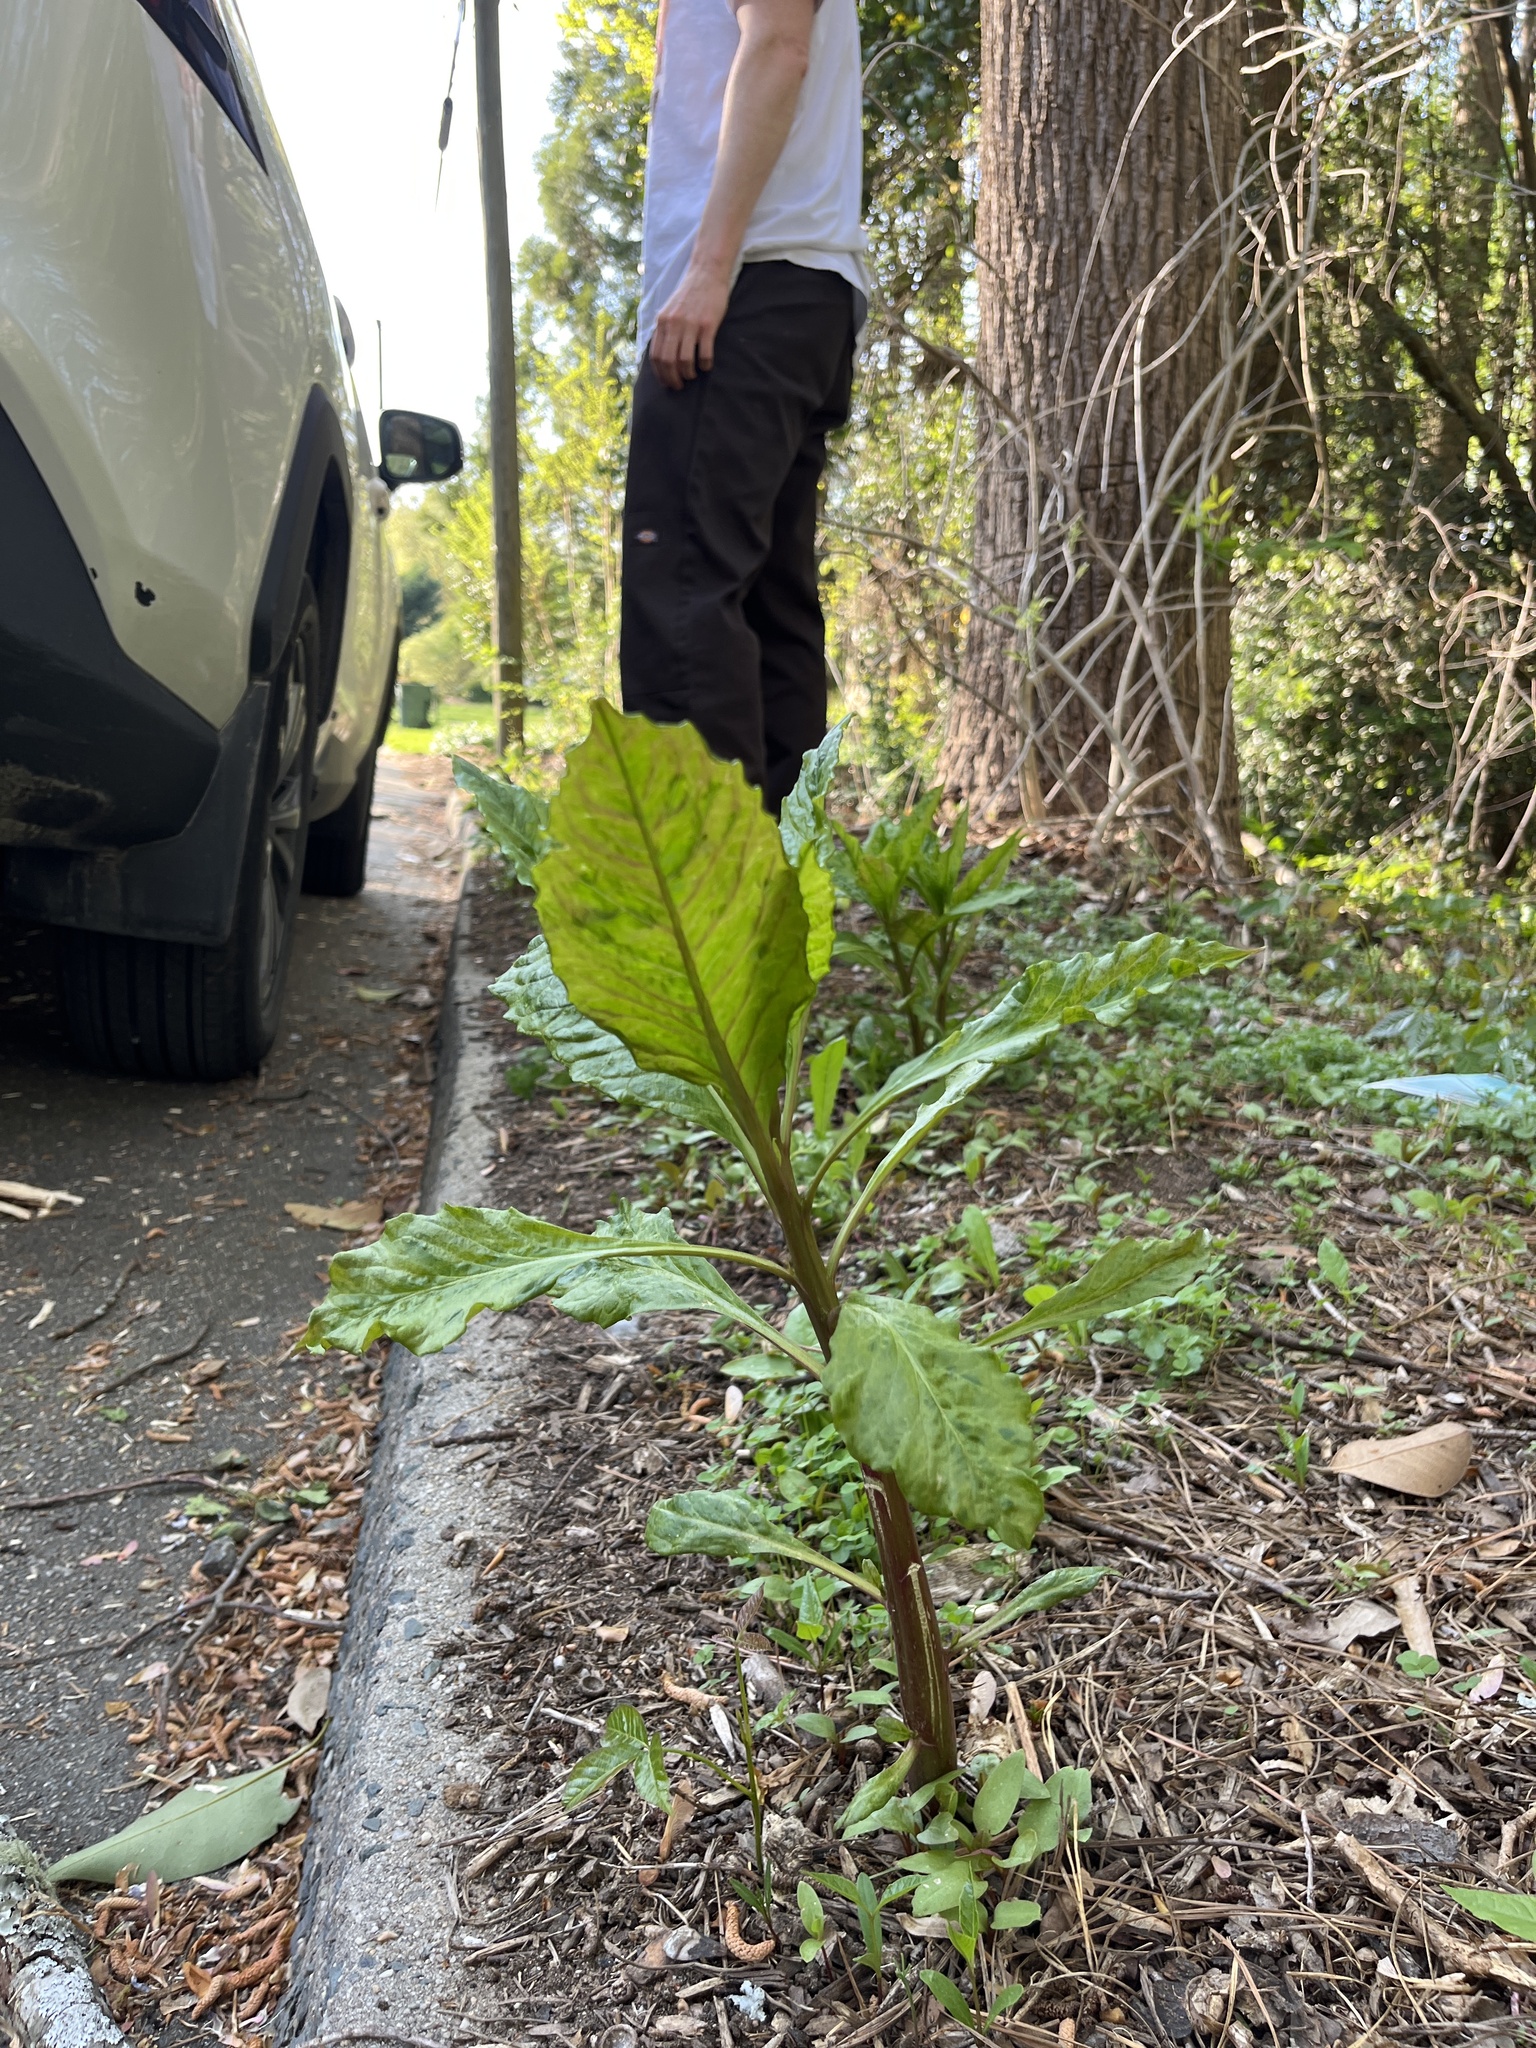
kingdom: Plantae
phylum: Tracheophyta
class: Magnoliopsida
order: Caryophyllales
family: Phytolaccaceae
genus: Phytolacca
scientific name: Phytolacca americana
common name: American pokeweed
